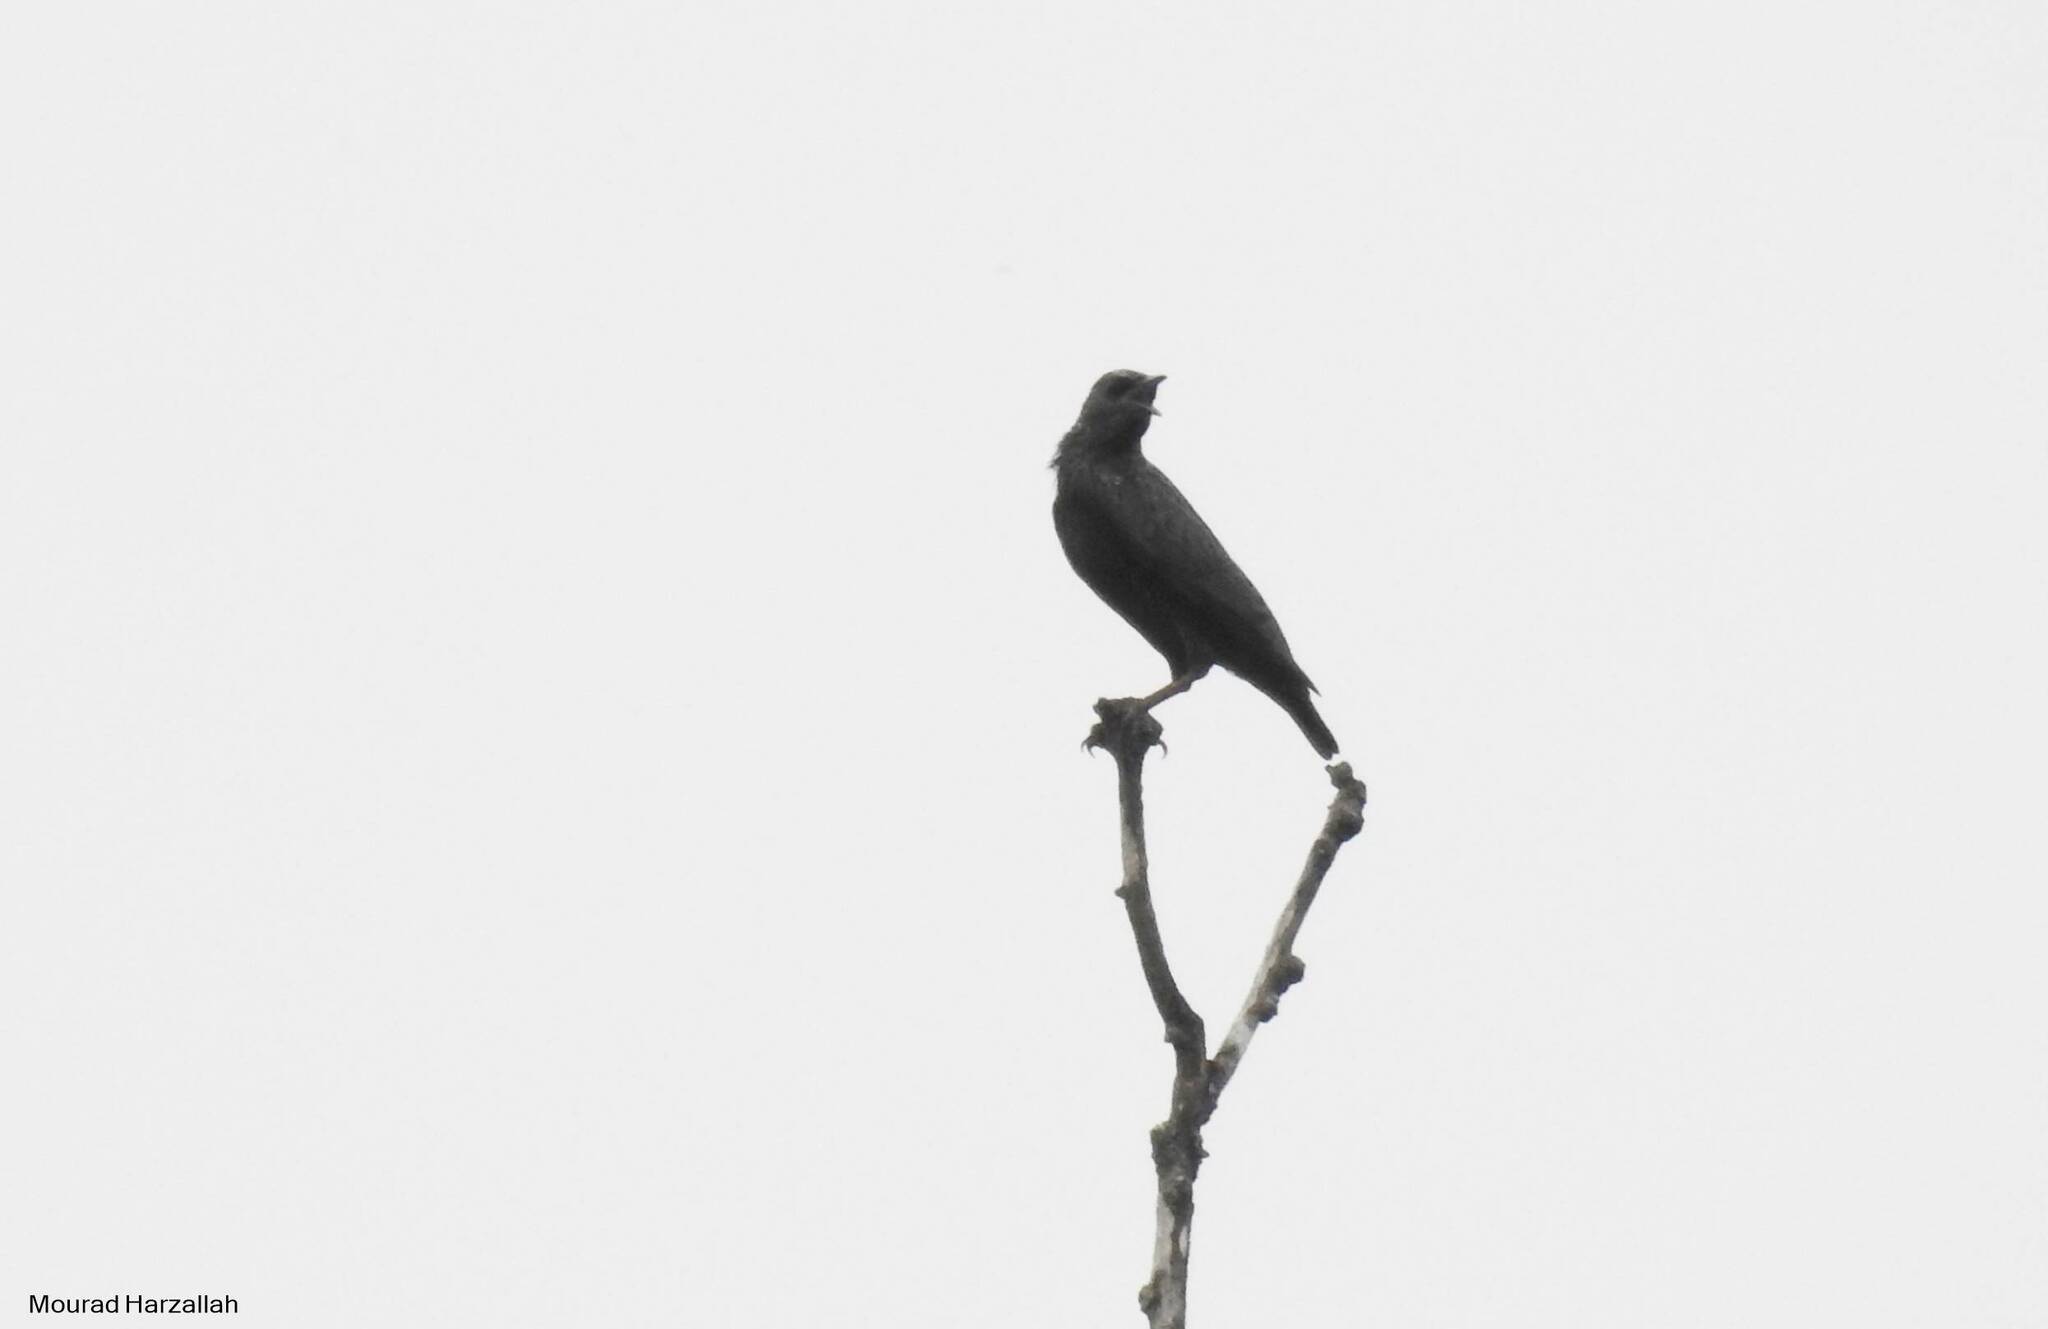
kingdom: Animalia
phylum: Chordata
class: Aves
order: Passeriformes
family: Sturnidae
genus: Sturnus
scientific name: Sturnus unicolor
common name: Spotless starling
